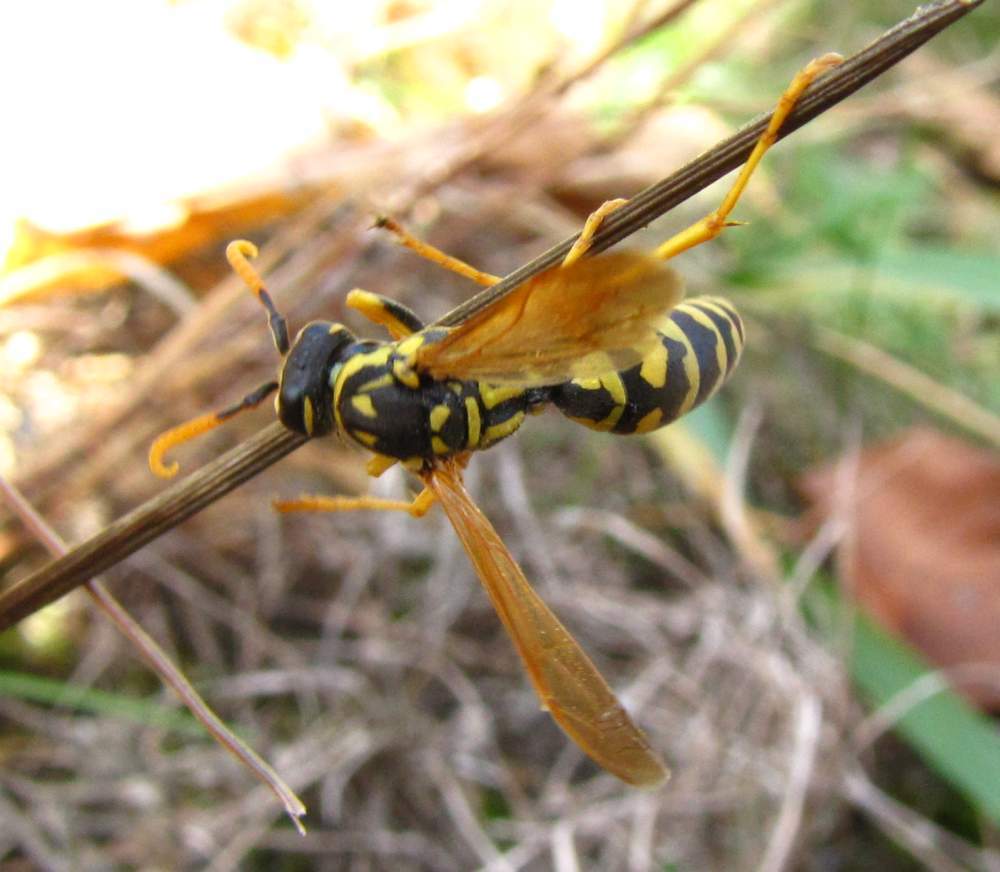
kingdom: Animalia
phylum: Arthropoda
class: Insecta
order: Hymenoptera
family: Eumenidae
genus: Polistes
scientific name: Polistes dominula
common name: Paper wasp
